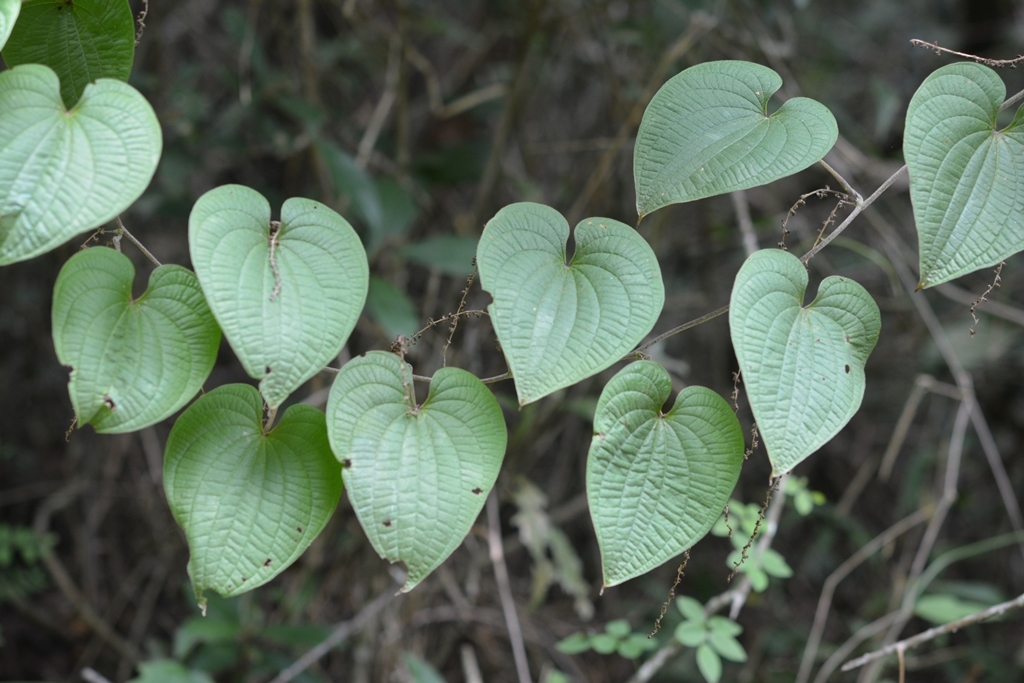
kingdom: Plantae
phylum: Tracheophyta
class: Liliopsida
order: Dioscoreales
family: Dioscoreaceae
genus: Dioscorea
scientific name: Dioscorea carpomaculata
